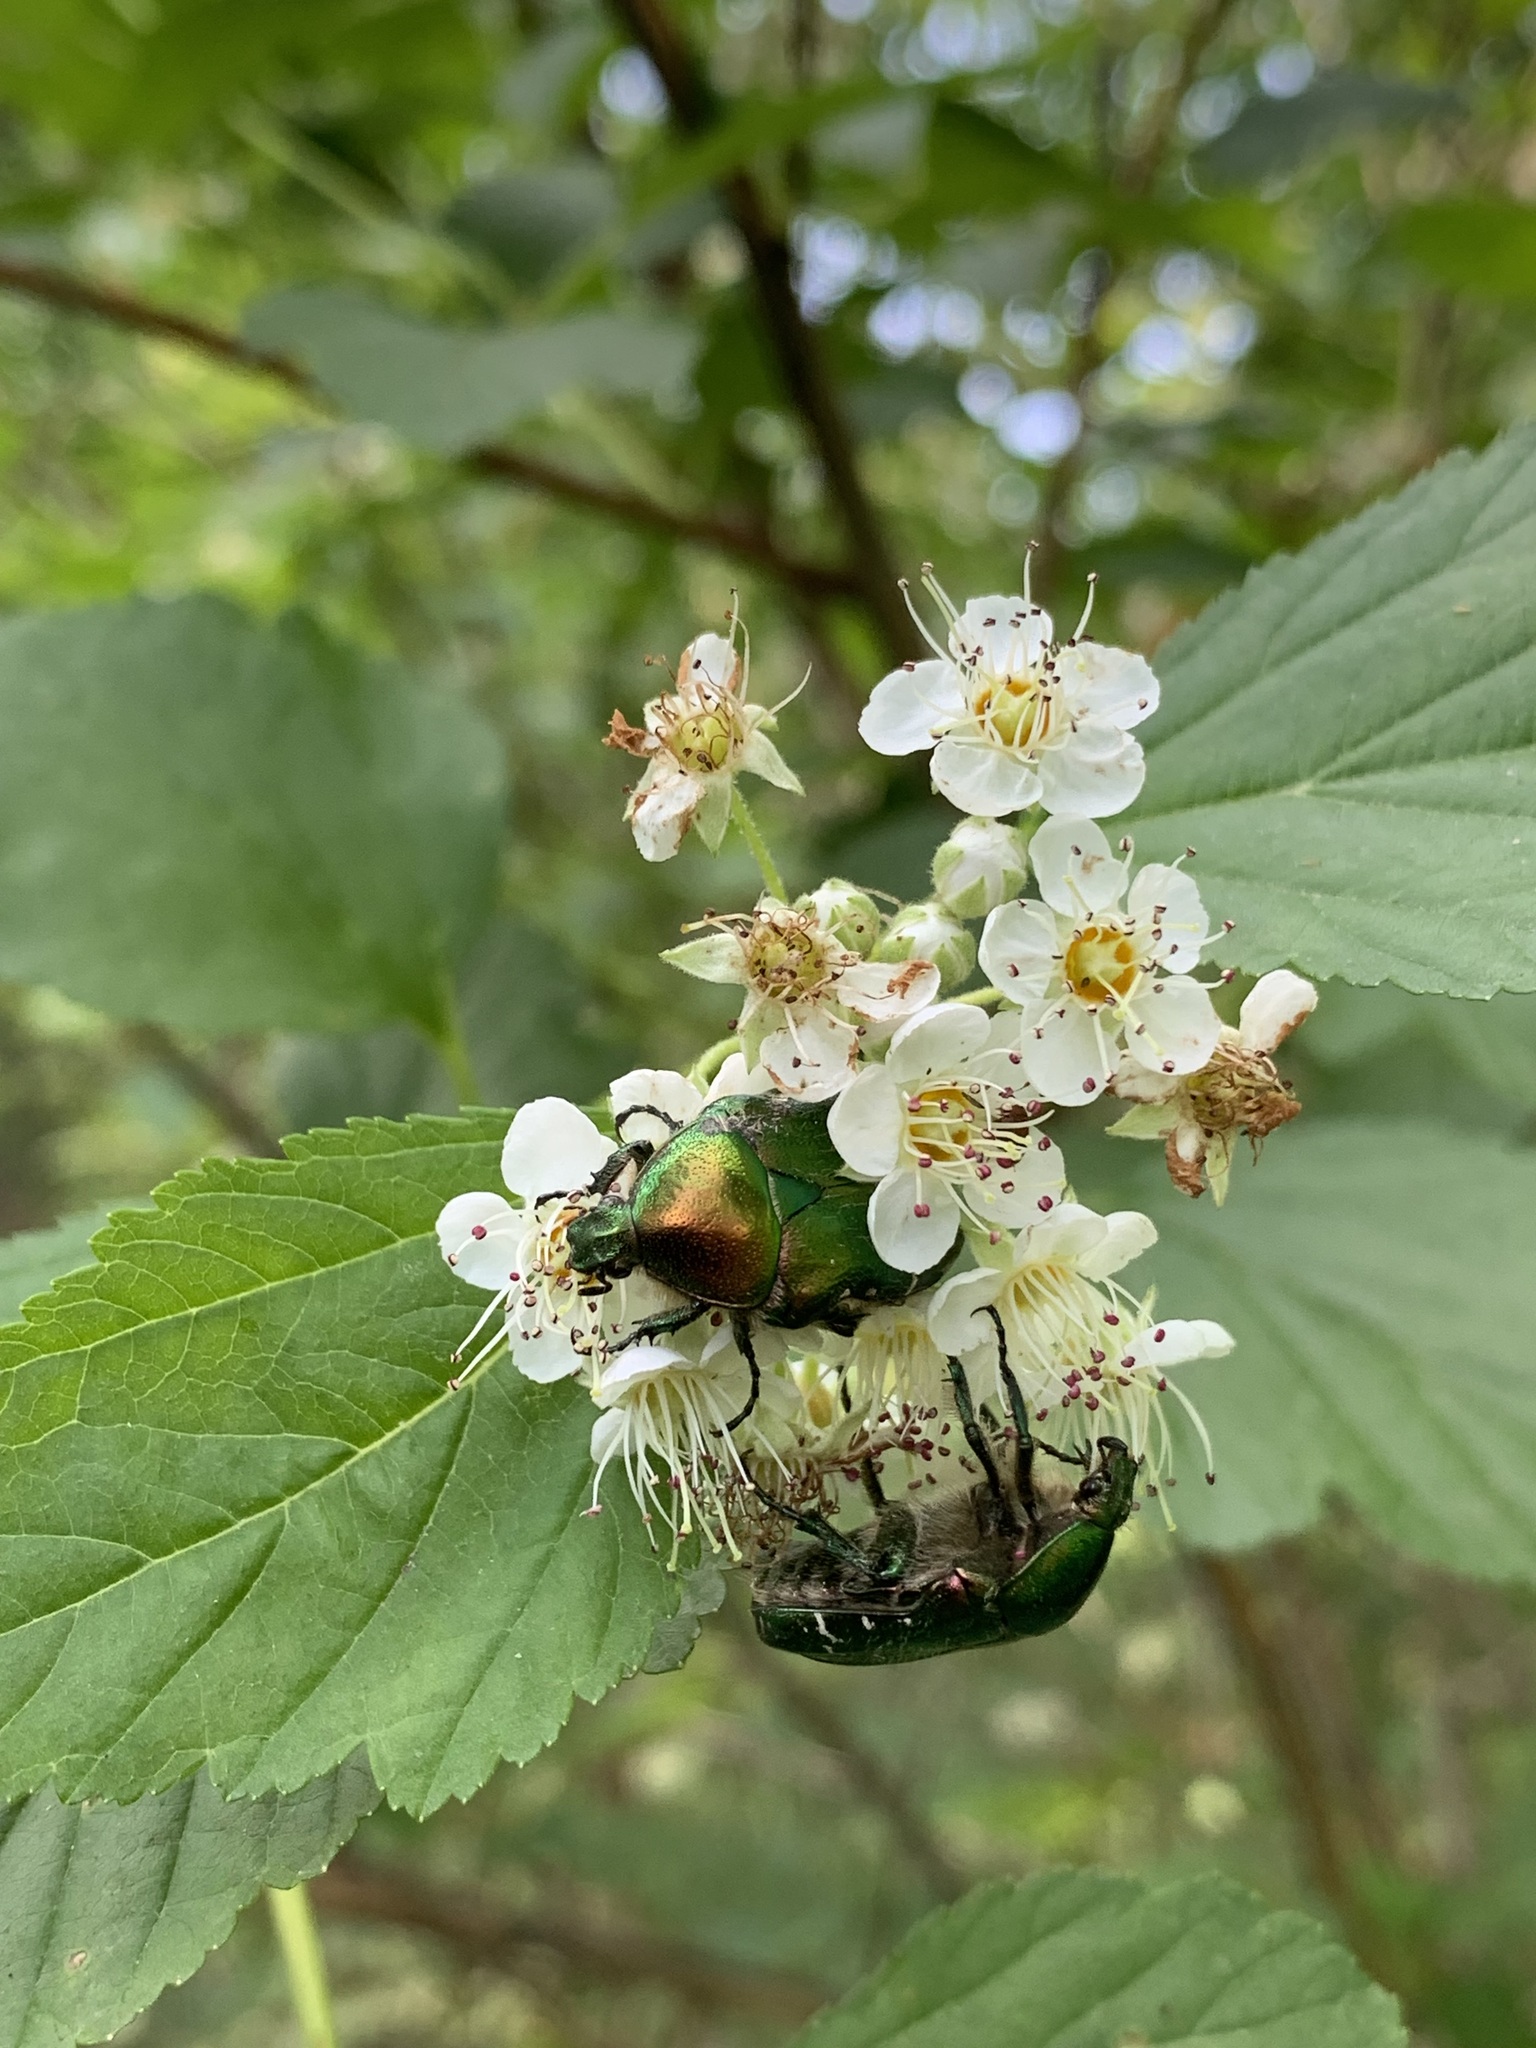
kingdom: Animalia
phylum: Arthropoda
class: Insecta
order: Coleoptera
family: Scarabaeidae
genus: Cetonia
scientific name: Cetonia aurata
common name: Rose chafer
